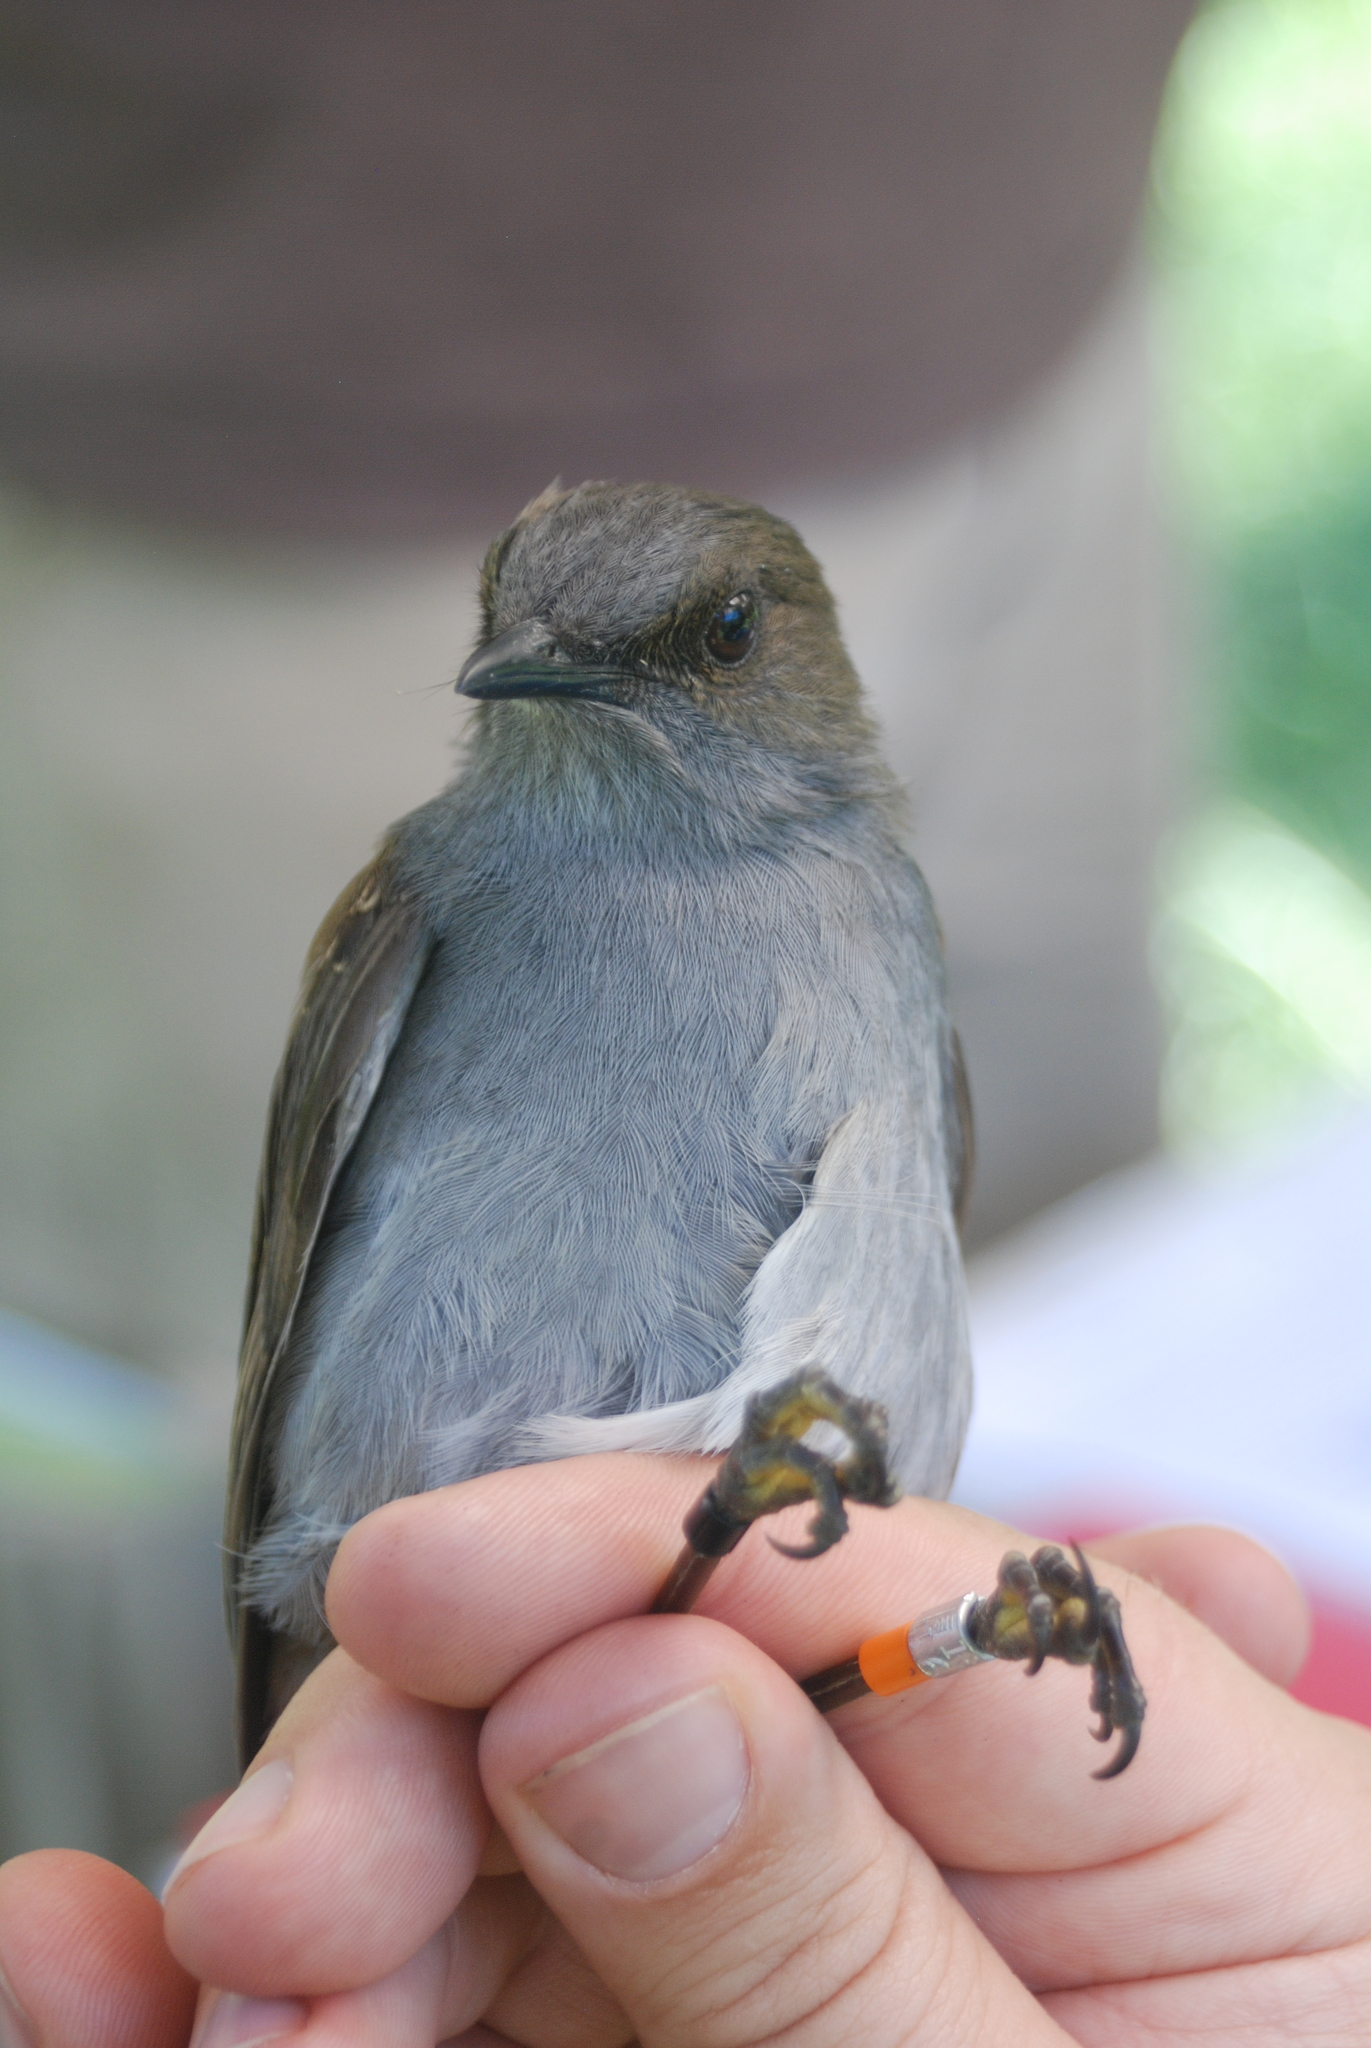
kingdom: Animalia
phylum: Chordata
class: Aves
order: Passeriformes
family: Turdidae
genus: Myadestes
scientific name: Myadestes obscurus
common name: Omao
